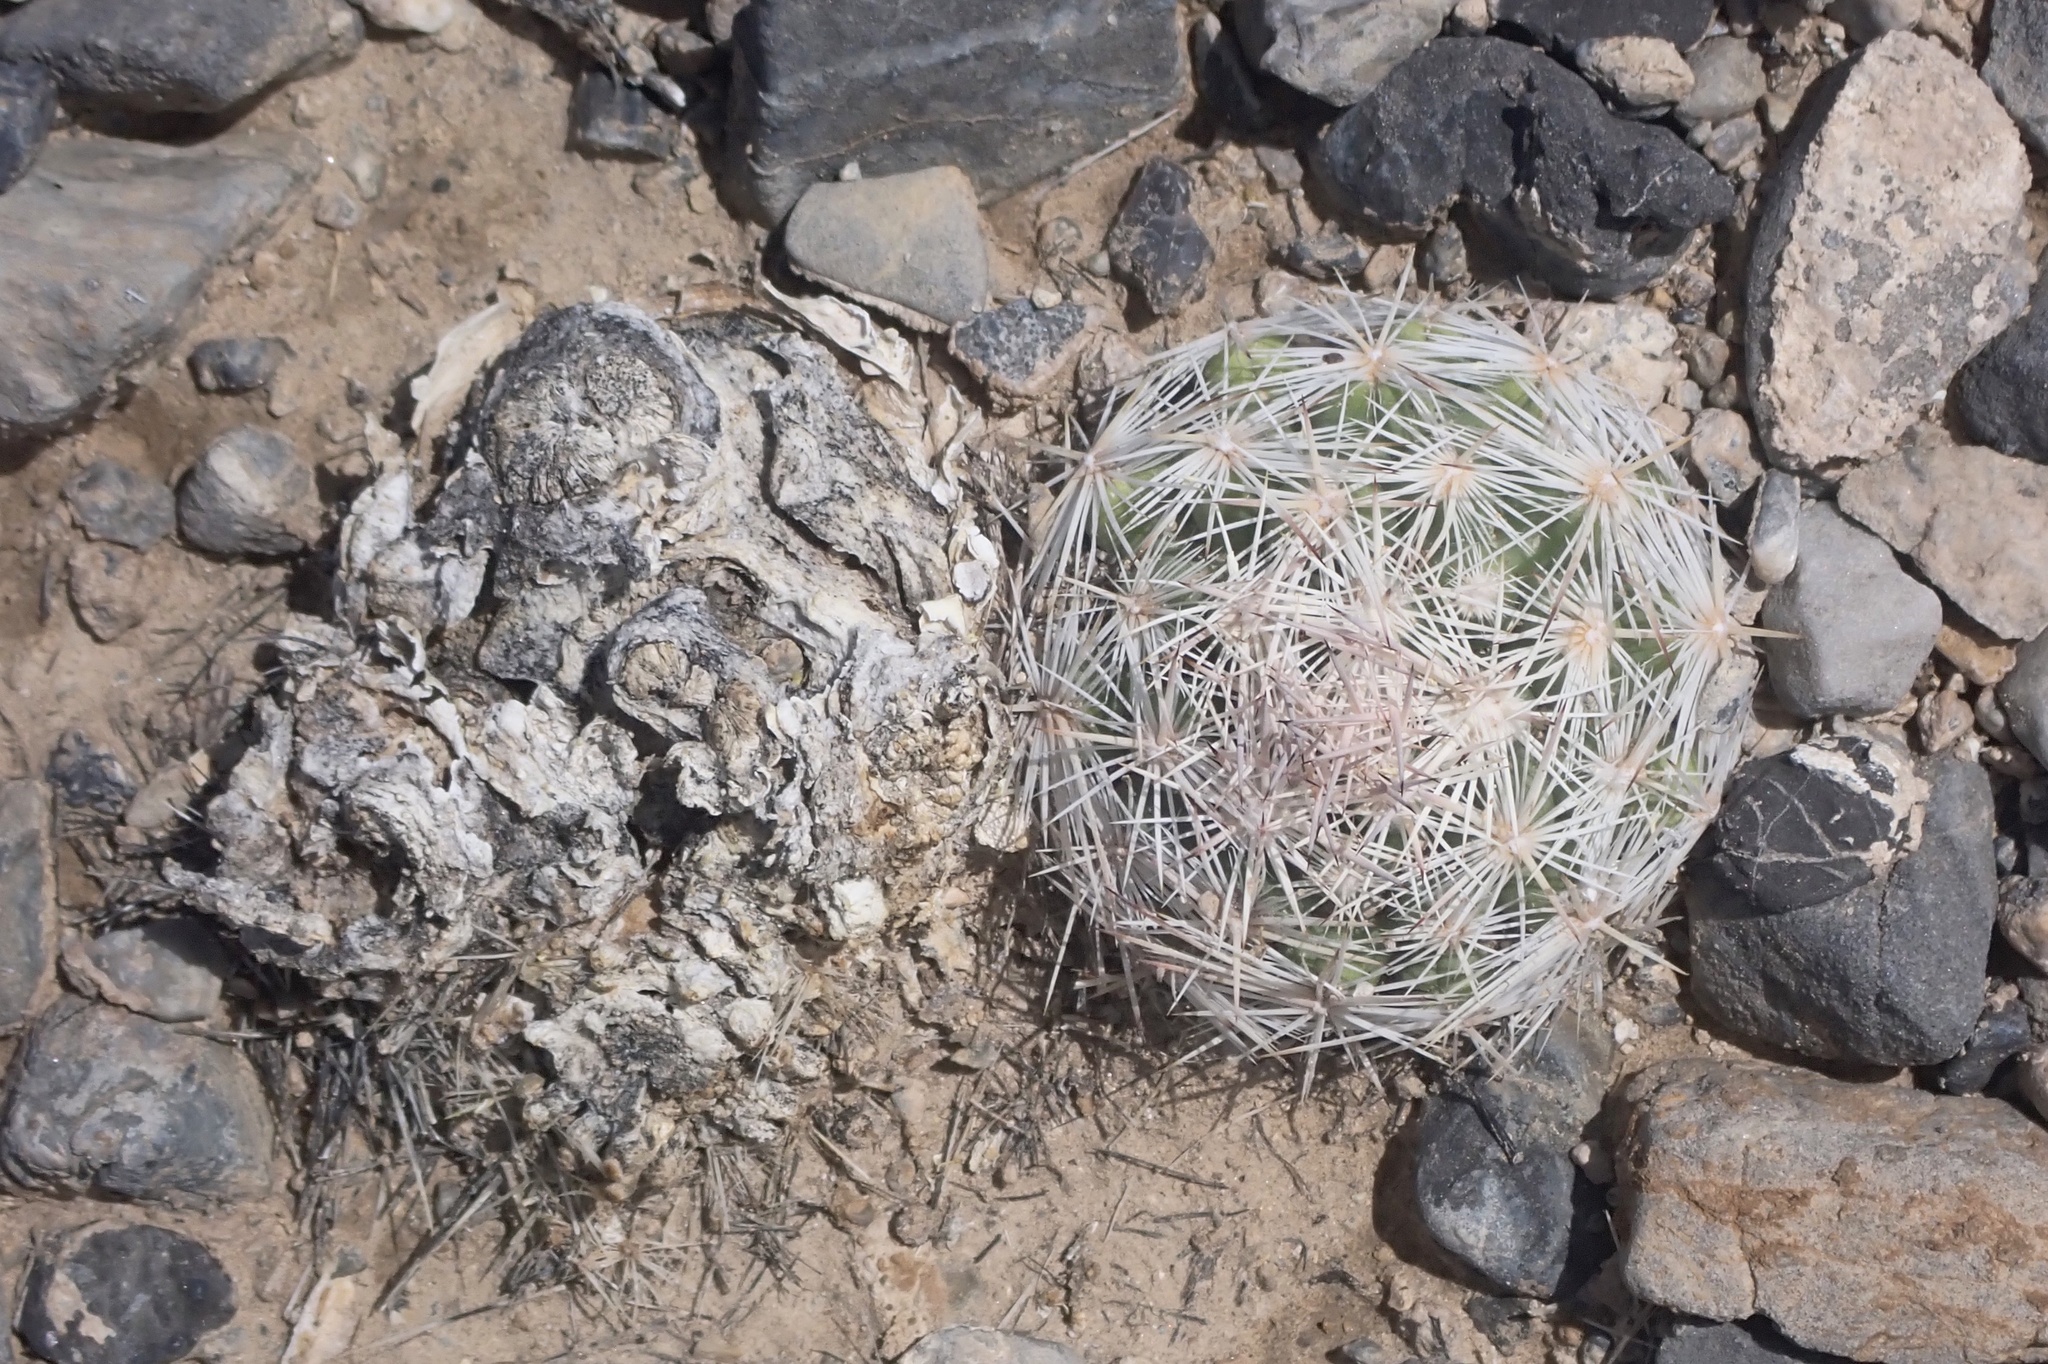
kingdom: Plantae
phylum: Tracheophyta
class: Magnoliopsida
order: Caryophyllales
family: Cactaceae
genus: Pelecyphora
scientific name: Pelecyphora dasyacantha
